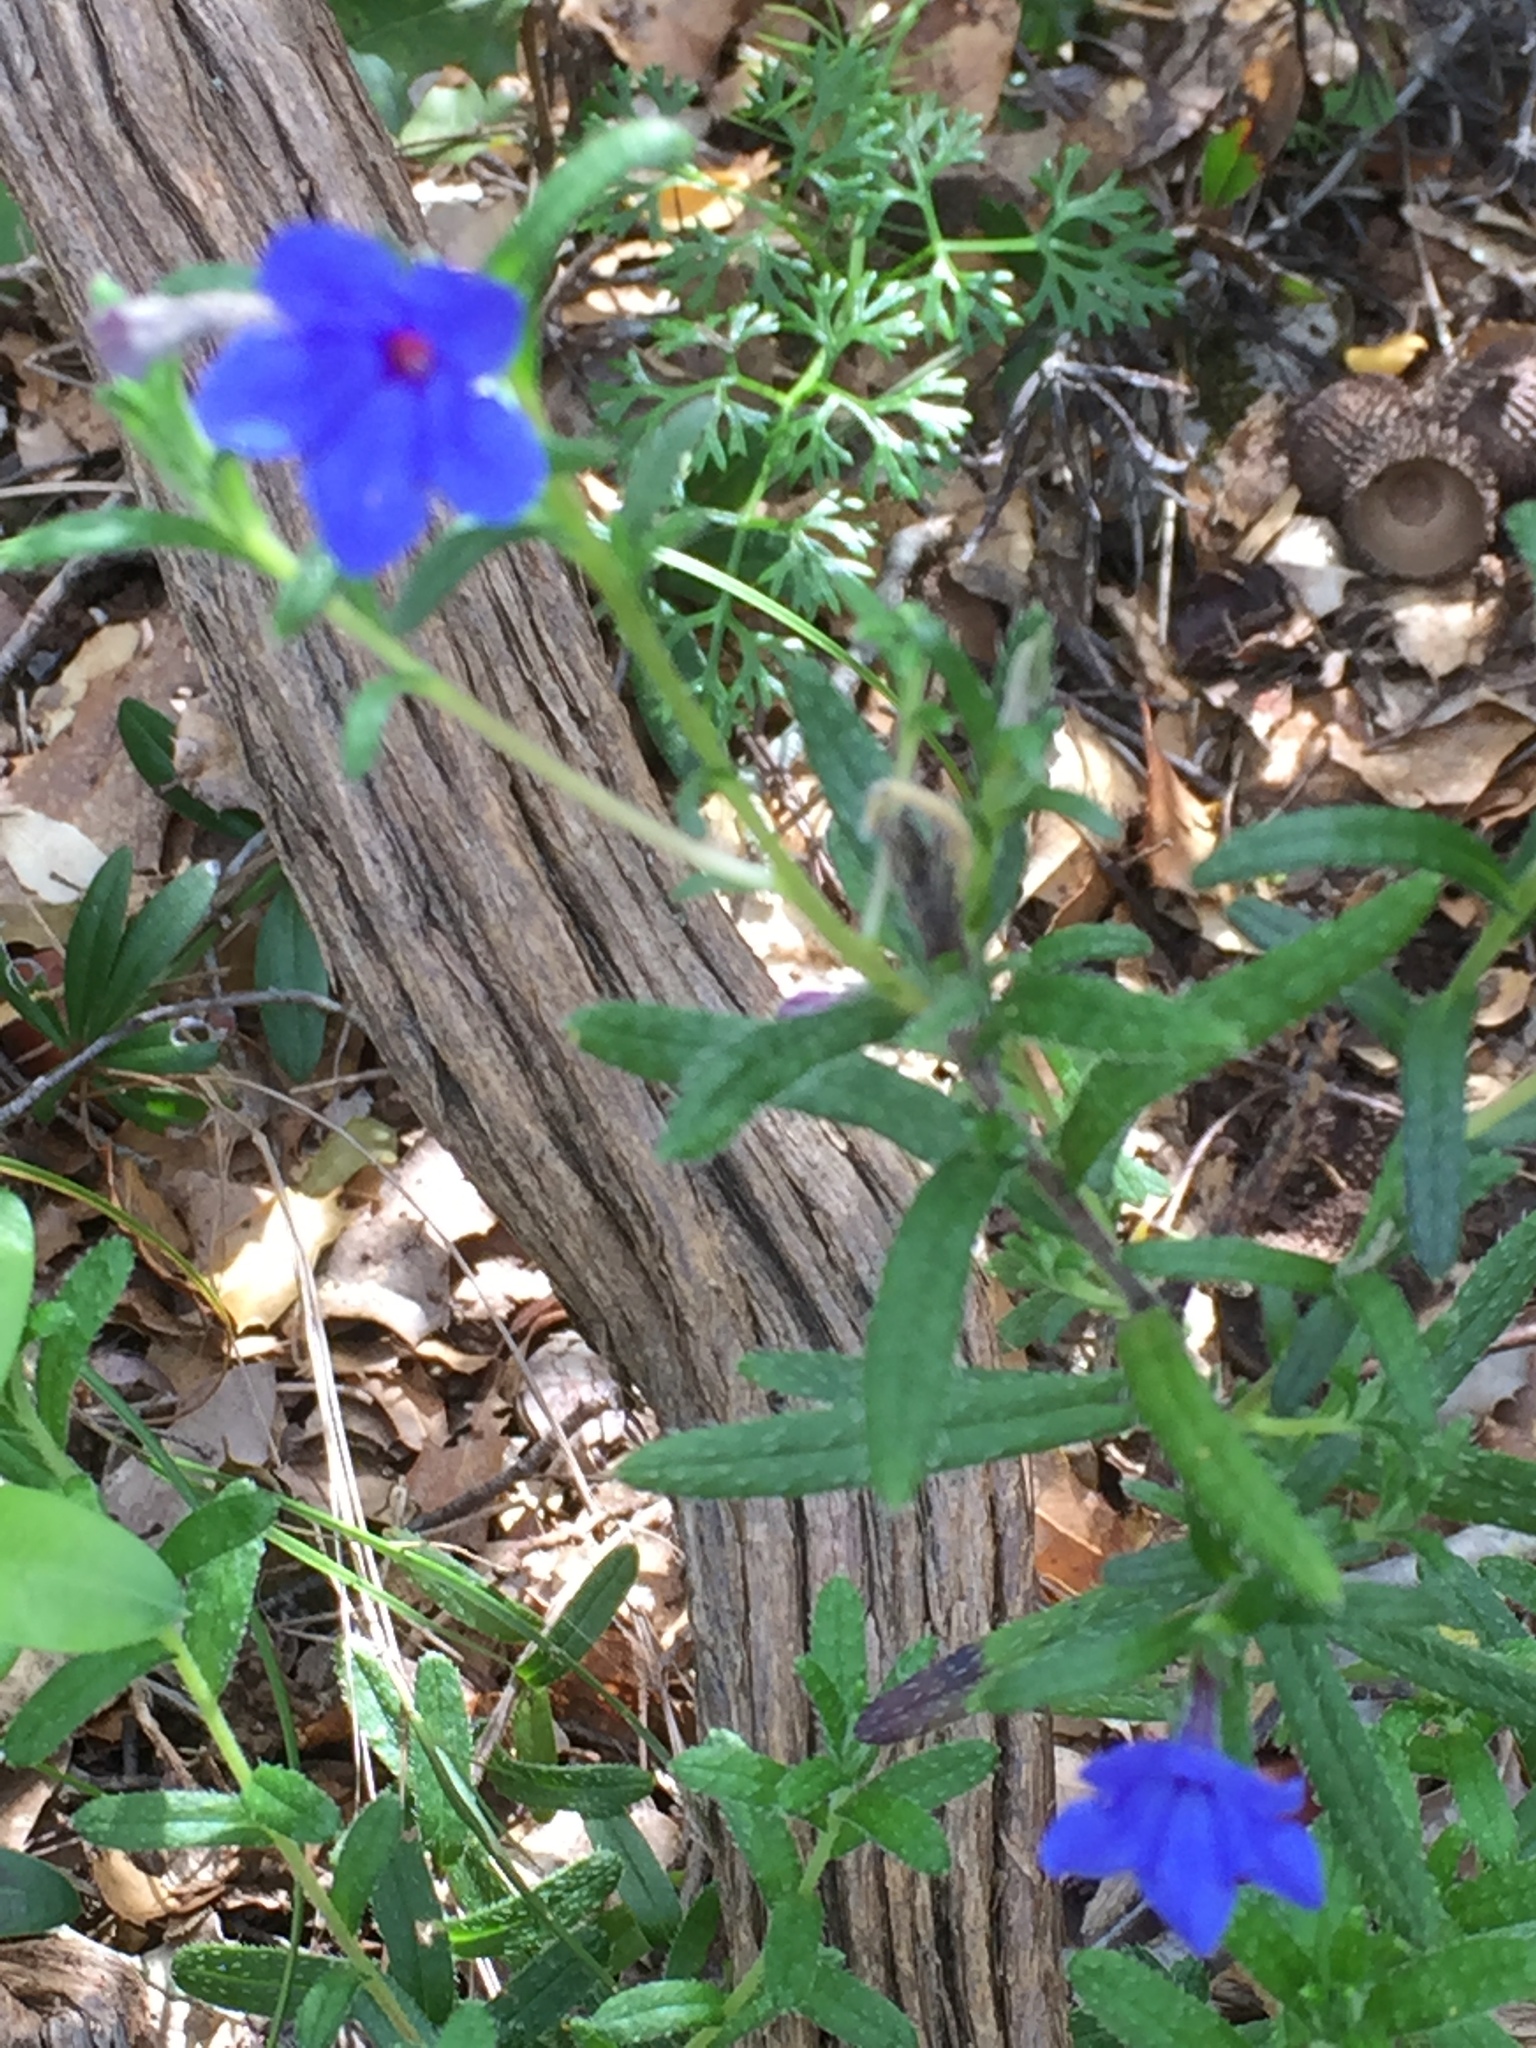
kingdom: Plantae
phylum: Tracheophyta
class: Magnoliopsida
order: Boraginales
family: Boraginaceae
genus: Glandora
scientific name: Glandora prostrata
